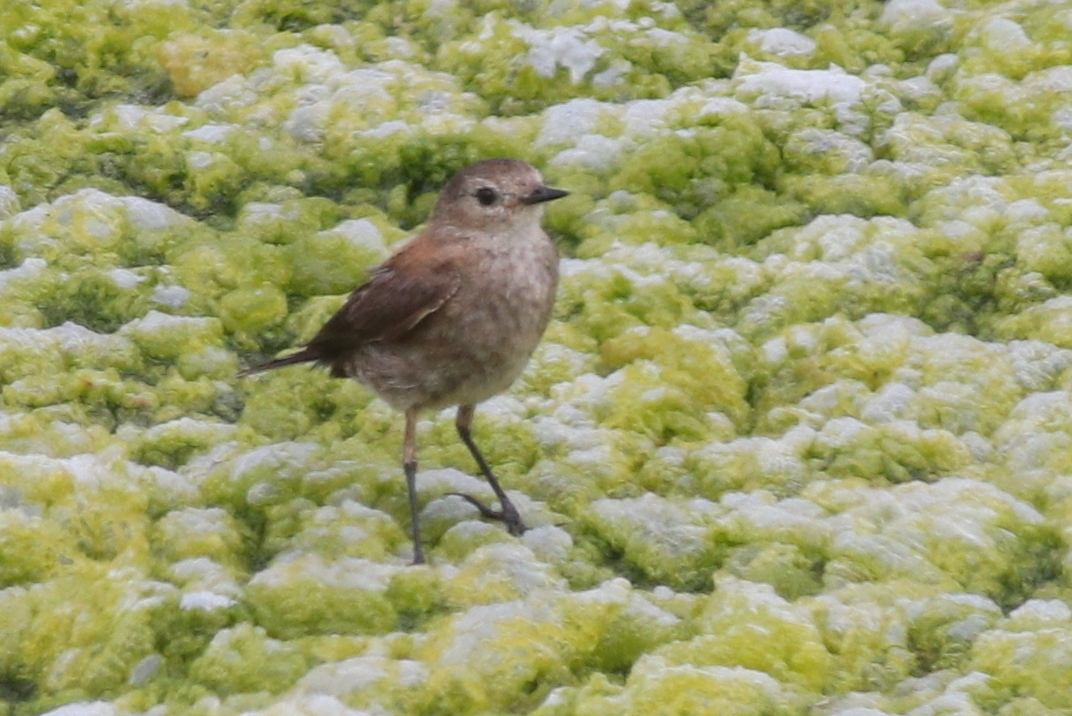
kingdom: Animalia
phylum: Chordata
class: Aves
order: Passeriformes
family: Tyrannidae
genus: Lessonia
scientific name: Lessonia rufa
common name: Austral negrito
